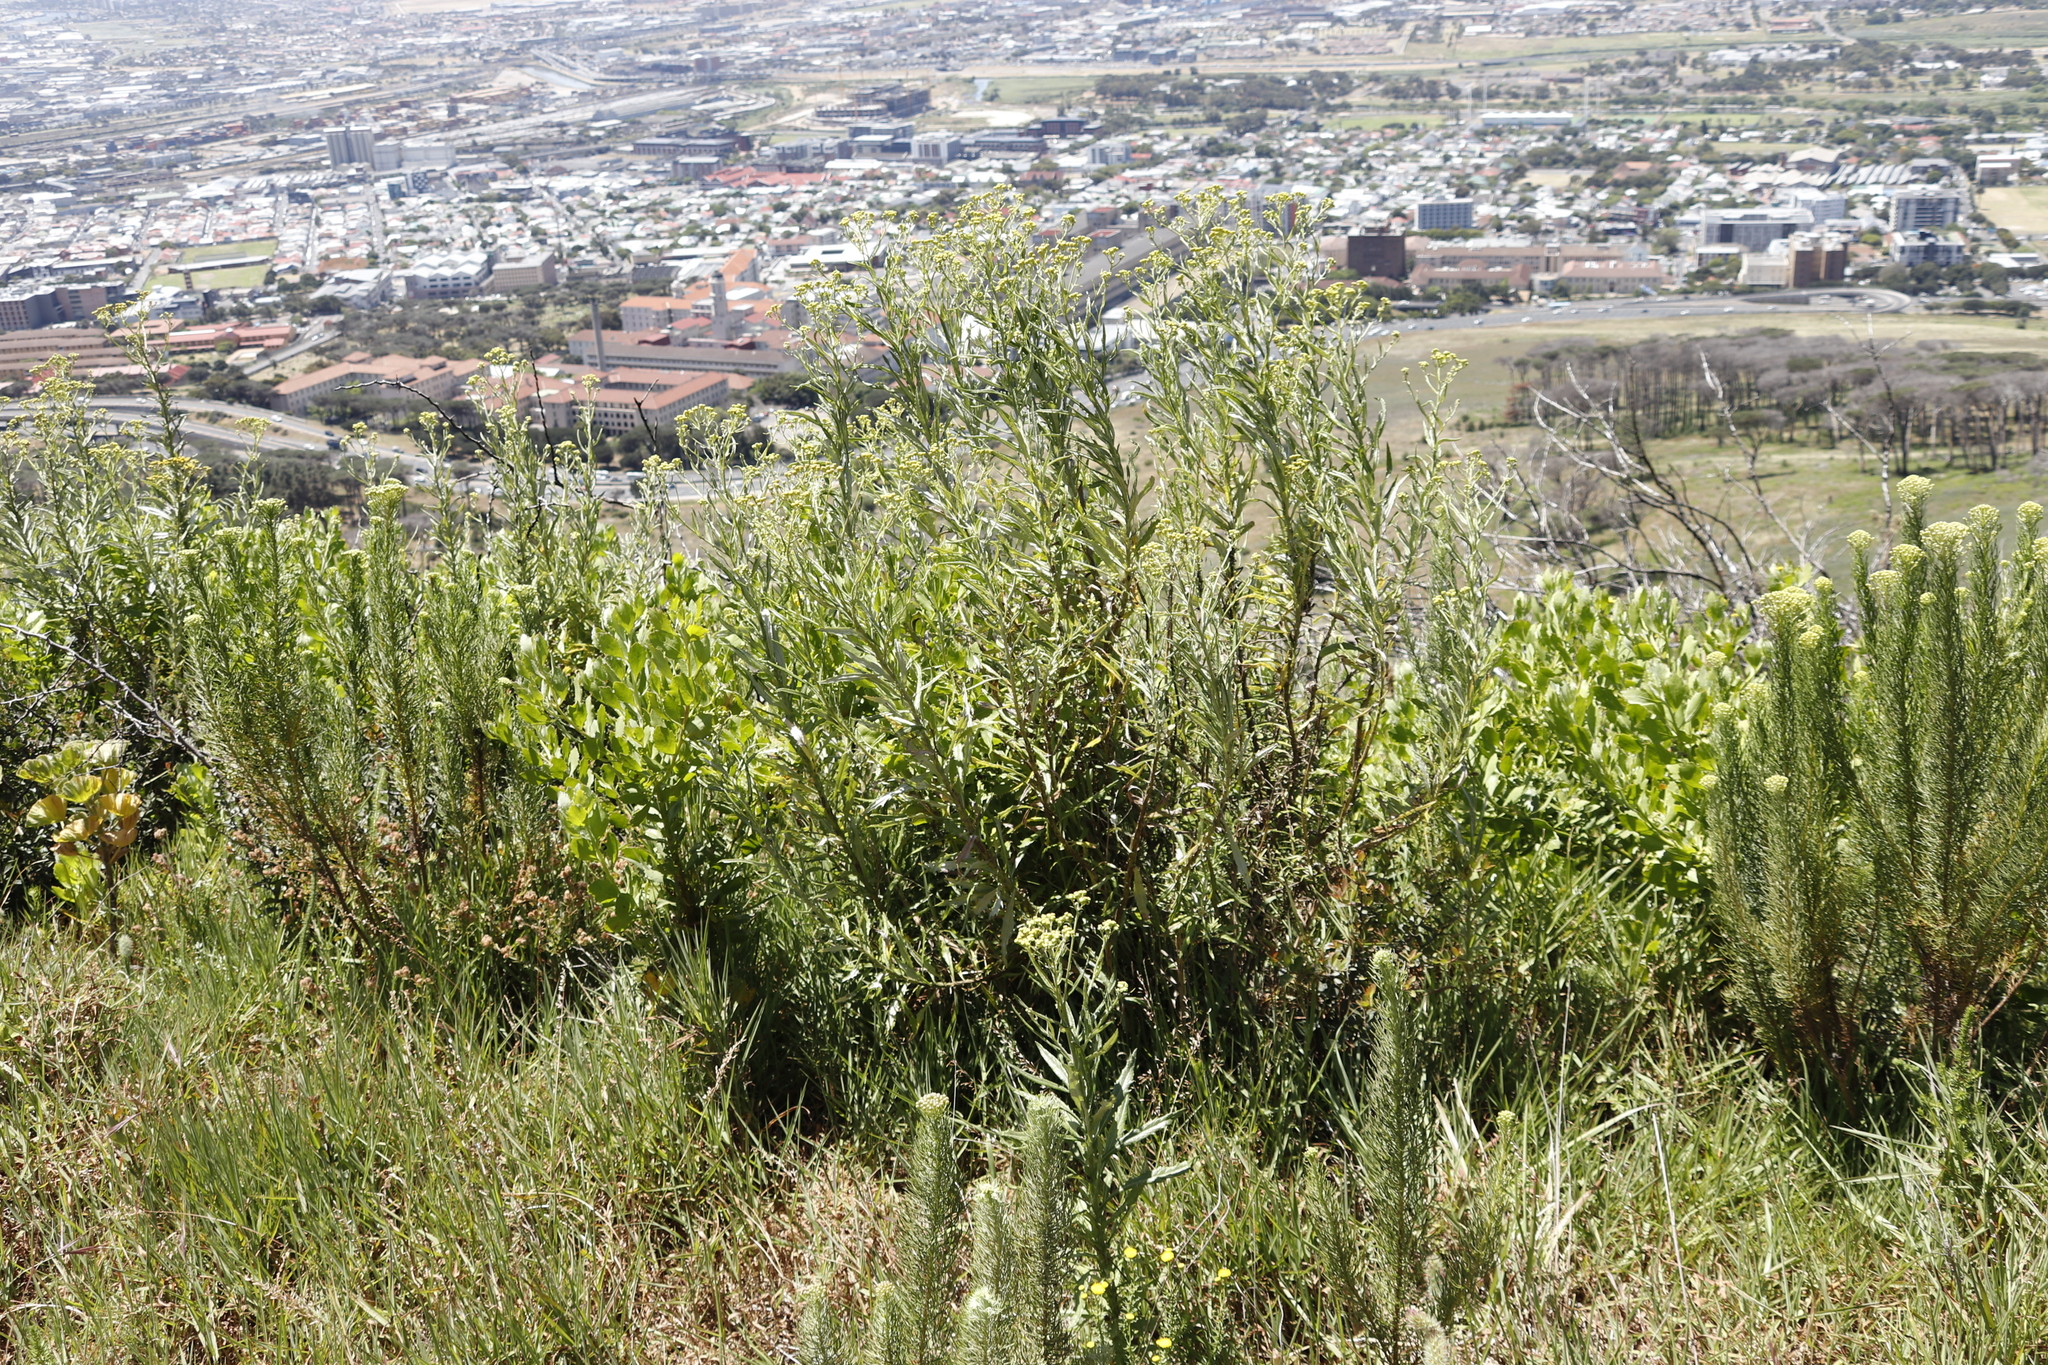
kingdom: Plantae
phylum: Tracheophyta
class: Magnoliopsida
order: Asterales
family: Asteraceae
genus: Senecio
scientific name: Senecio pterophorus
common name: Shoddy ragwort
